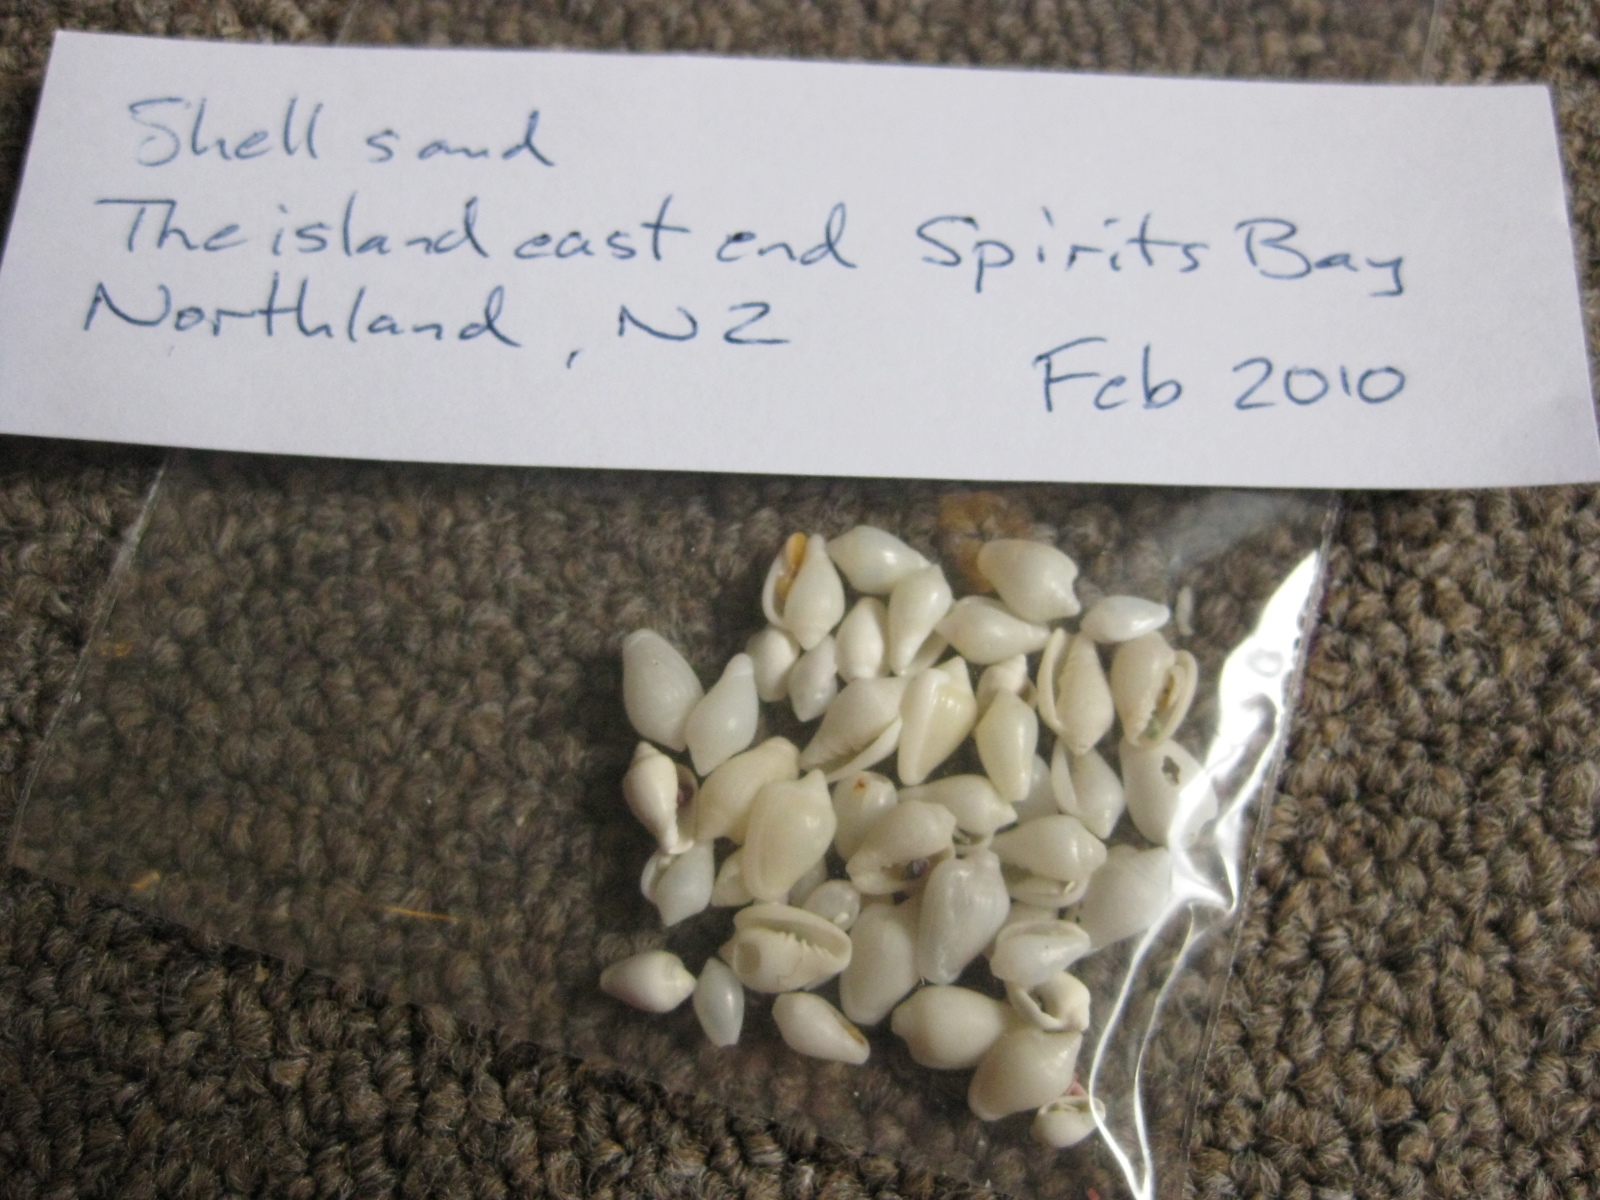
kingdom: Animalia
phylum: Mollusca
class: Gastropoda
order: Neogastropoda
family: Marginellidae
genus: Mesoginella
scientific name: Mesoginella vailei
